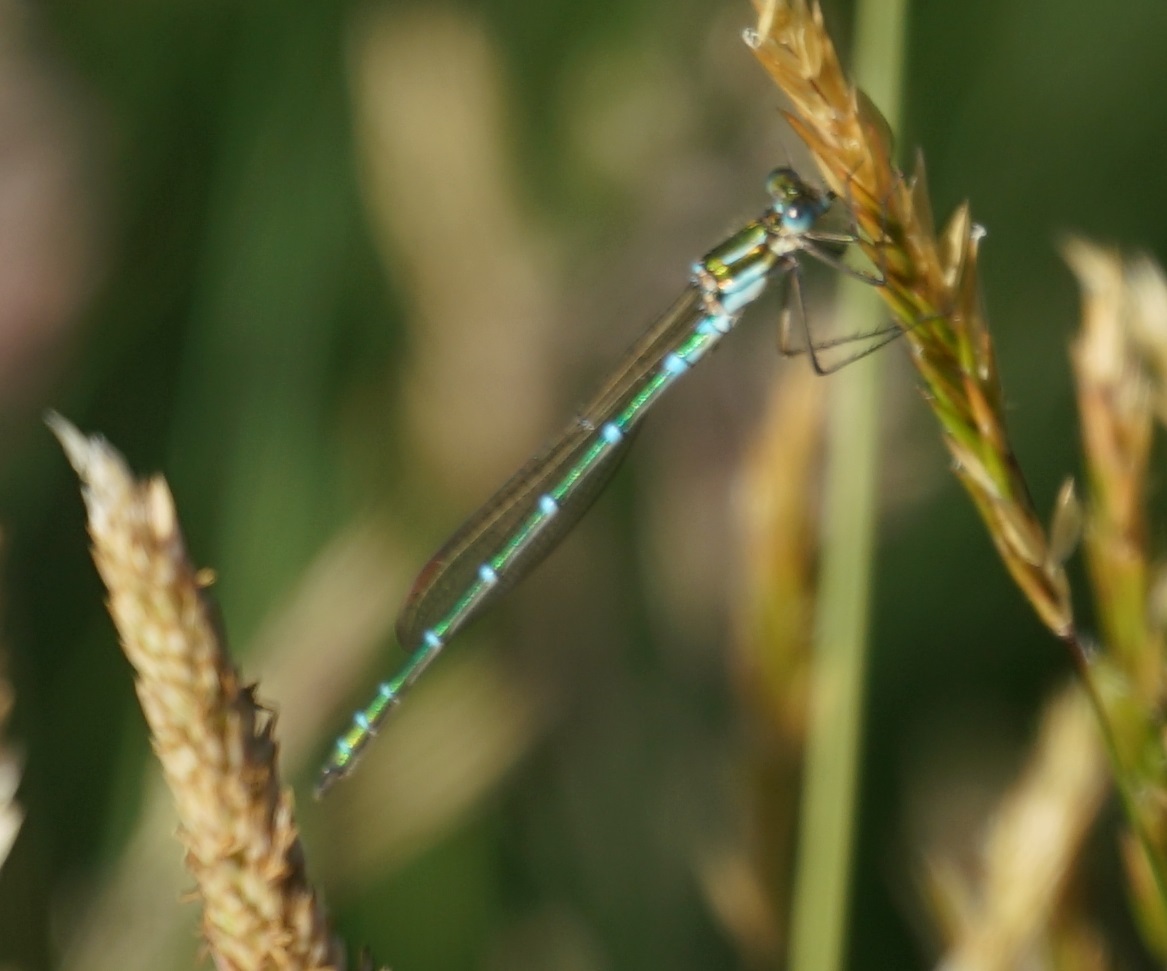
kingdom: Animalia
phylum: Arthropoda
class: Insecta
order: Odonata
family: Lestidae
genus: Austrolestes
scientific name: Austrolestes cingulatus
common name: Metallic ringtail
